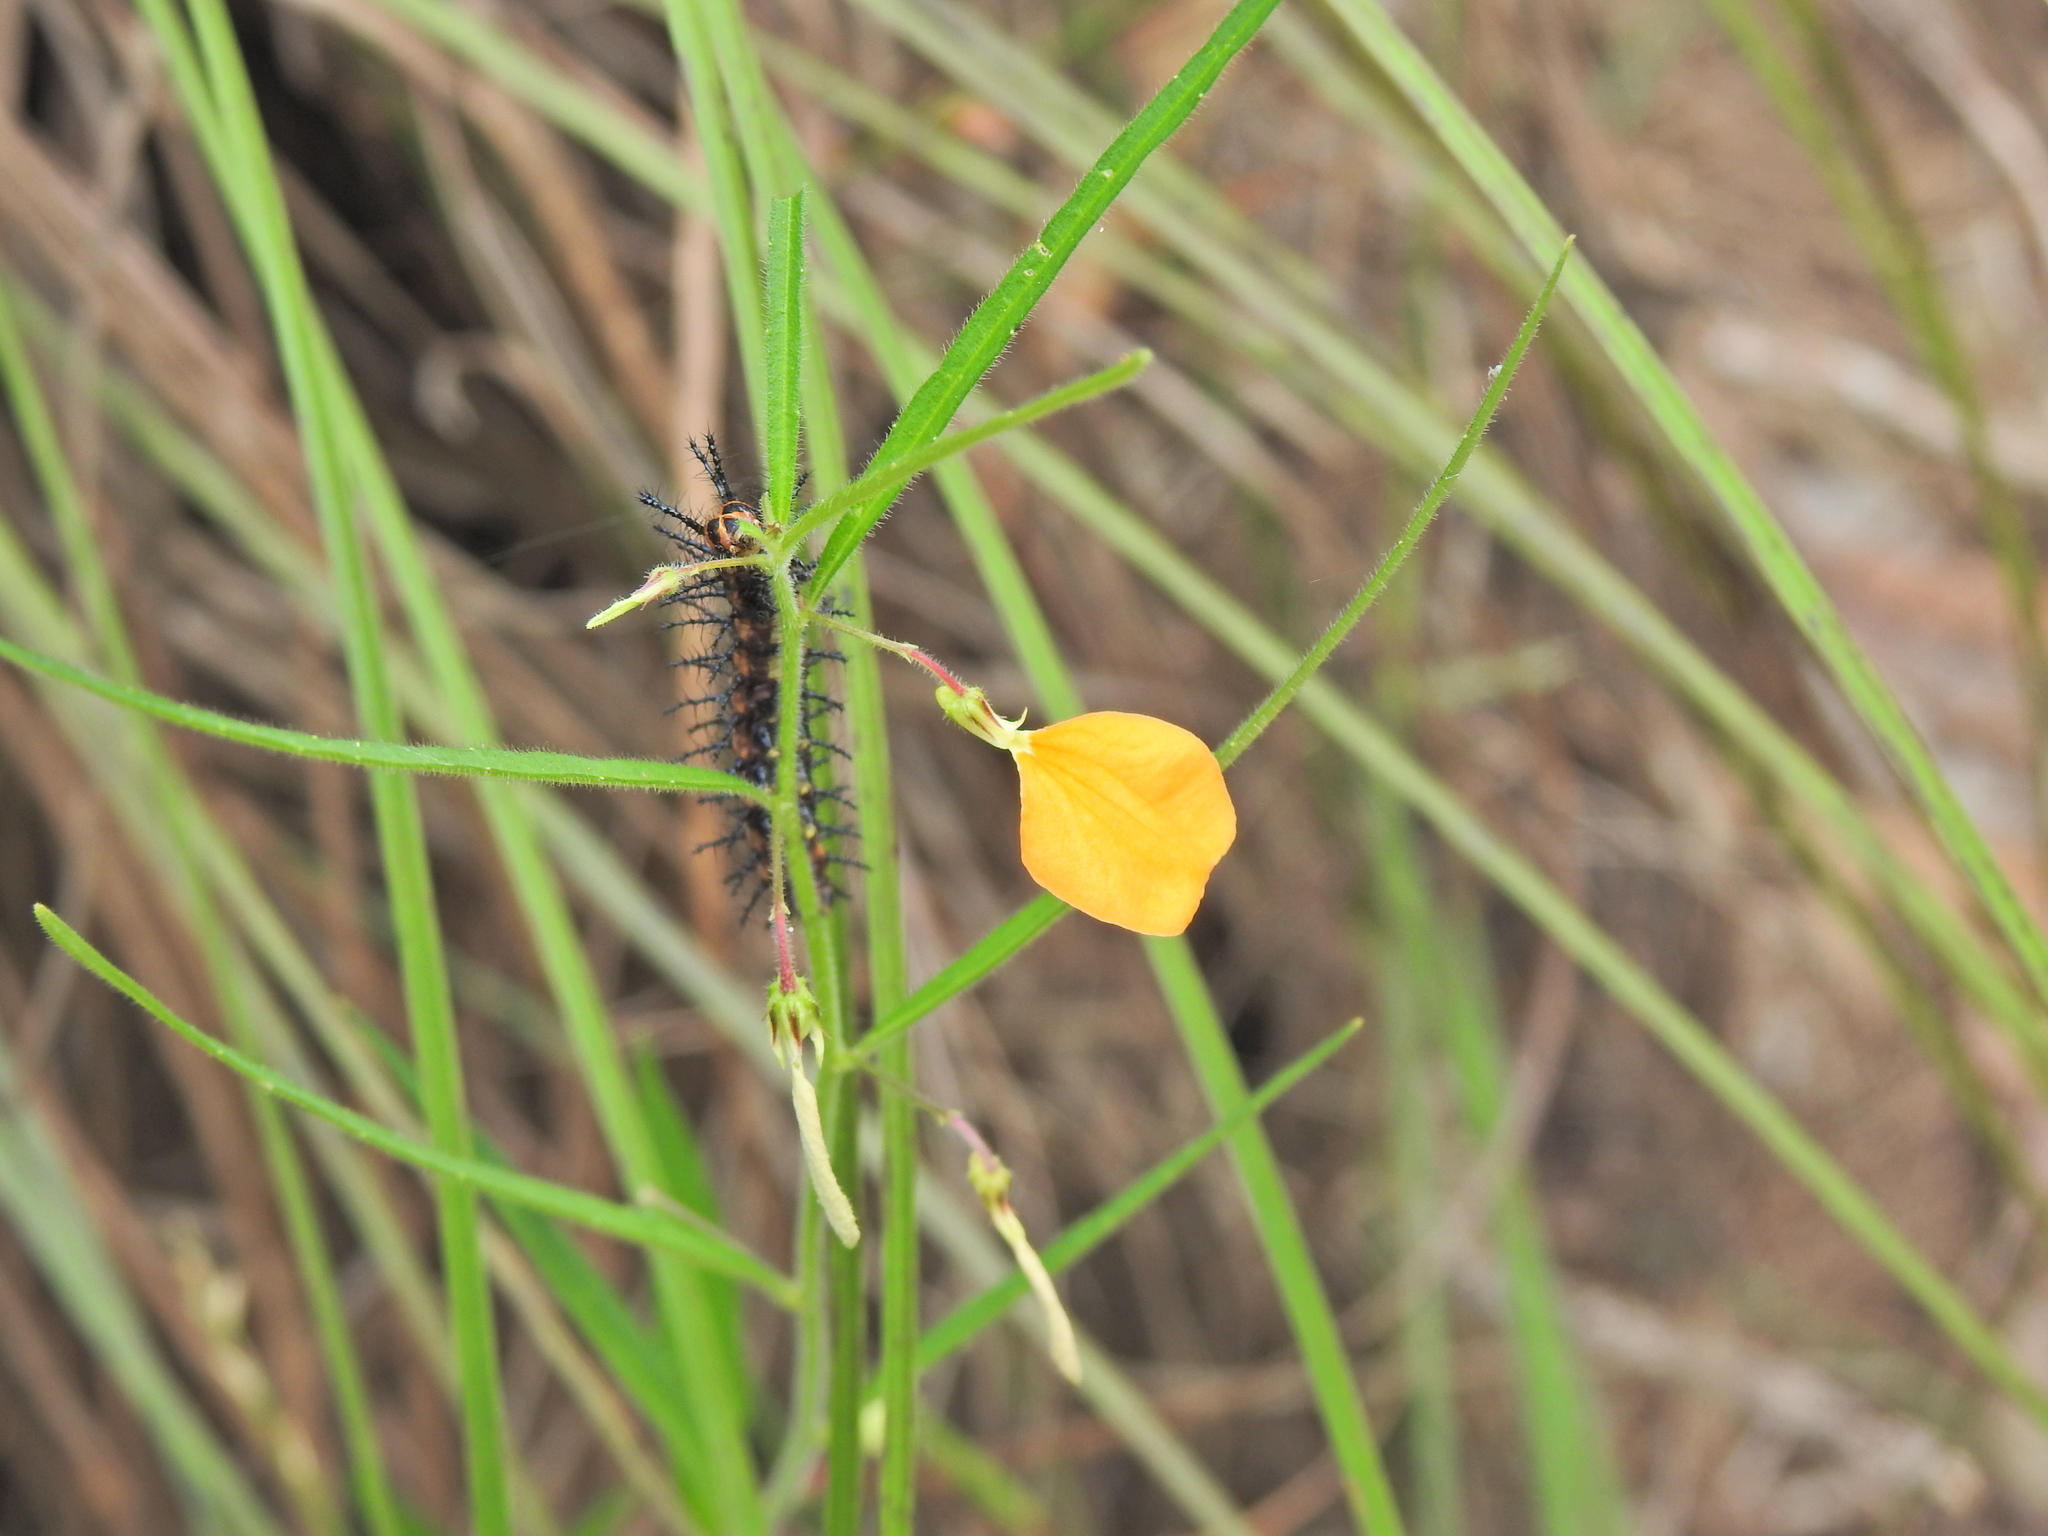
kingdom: Plantae
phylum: Tracheophyta
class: Magnoliopsida
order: Malpighiales
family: Violaceae
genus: Pigea
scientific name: Pigea stellarioides
